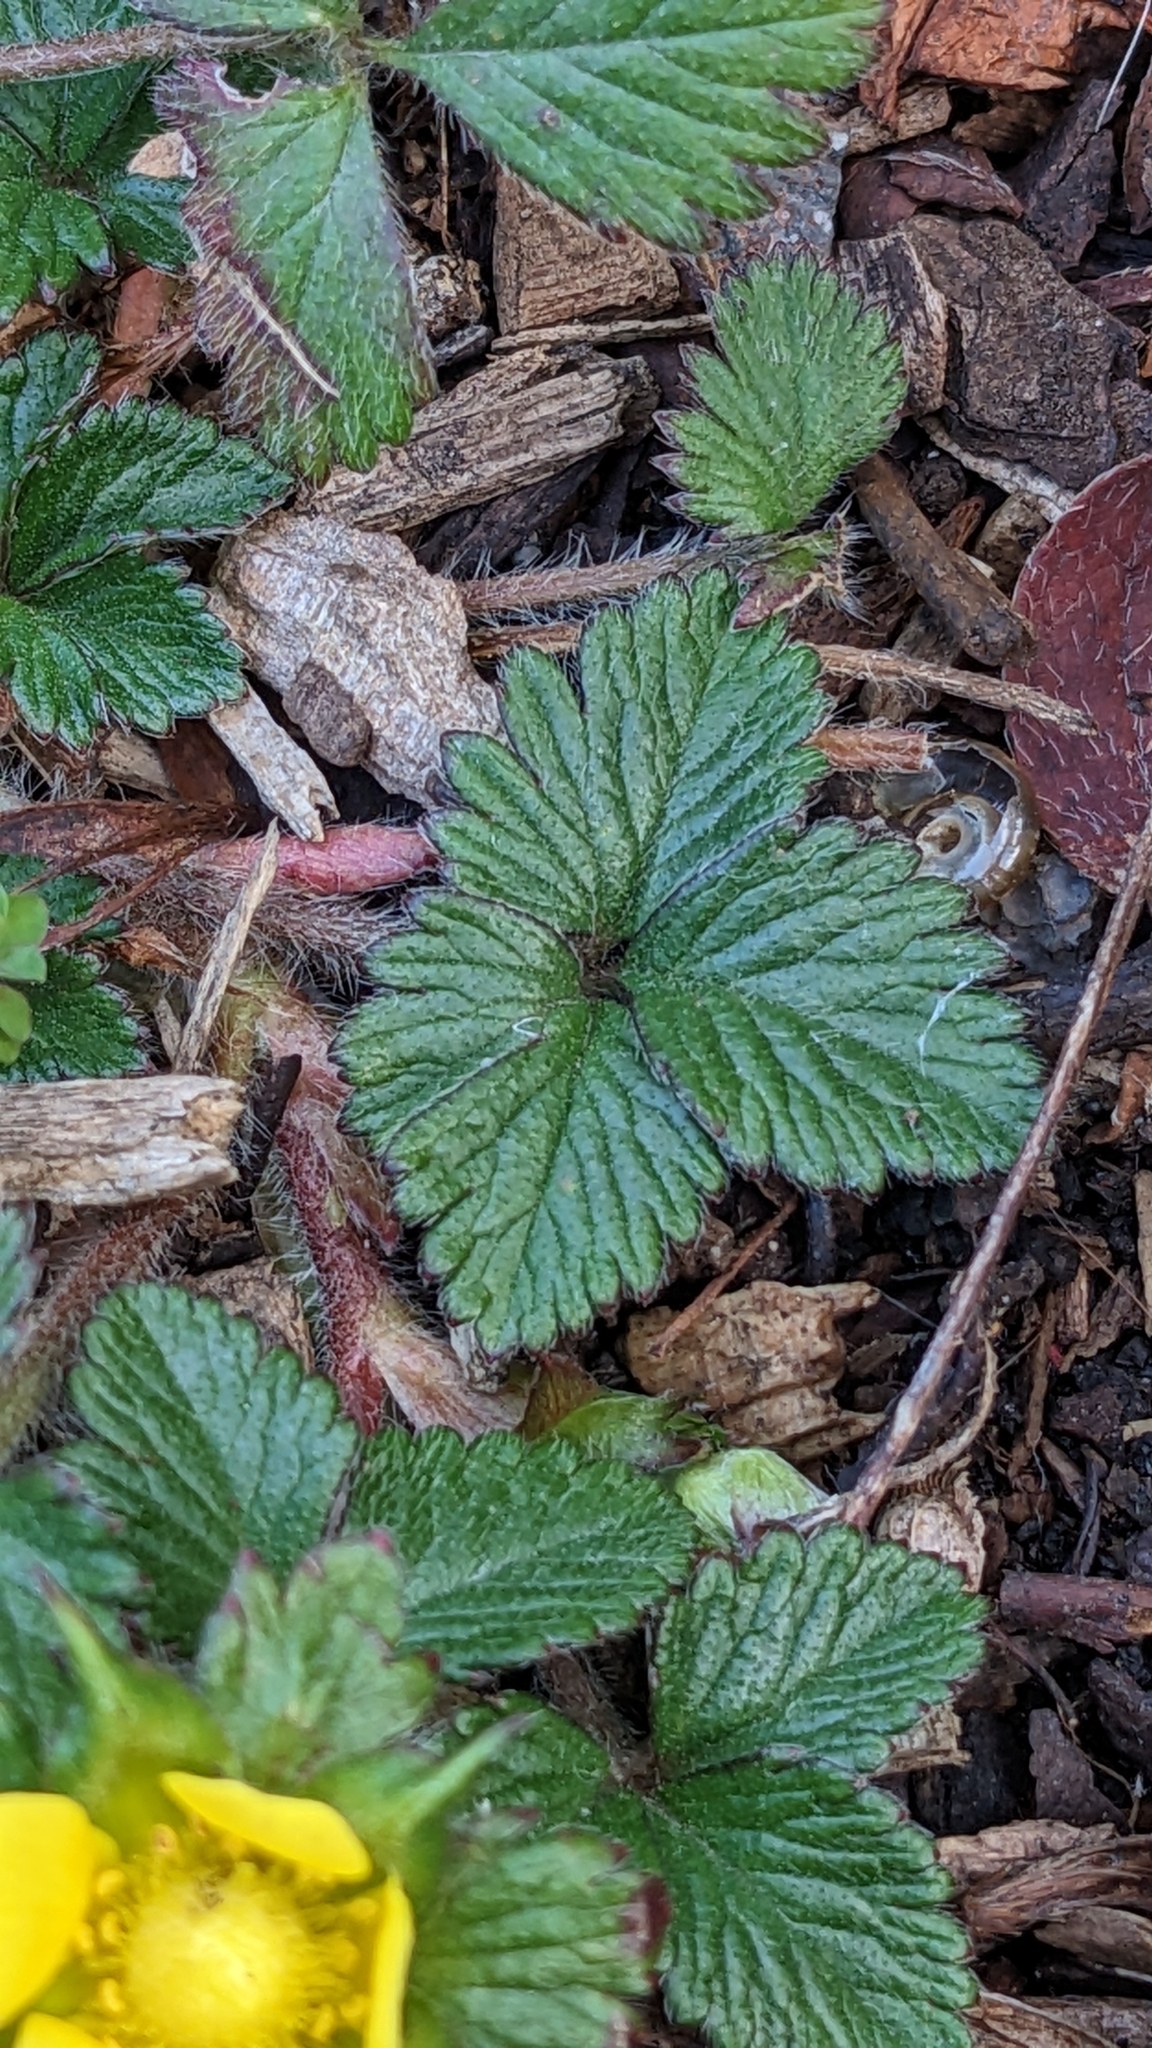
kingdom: Plantae
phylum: Tracheophyta
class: Magnoliopsida
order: Rosales
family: Rosaceae
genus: Potentilla
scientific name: Potentilla indica
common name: Yellow-flowered strawberry
